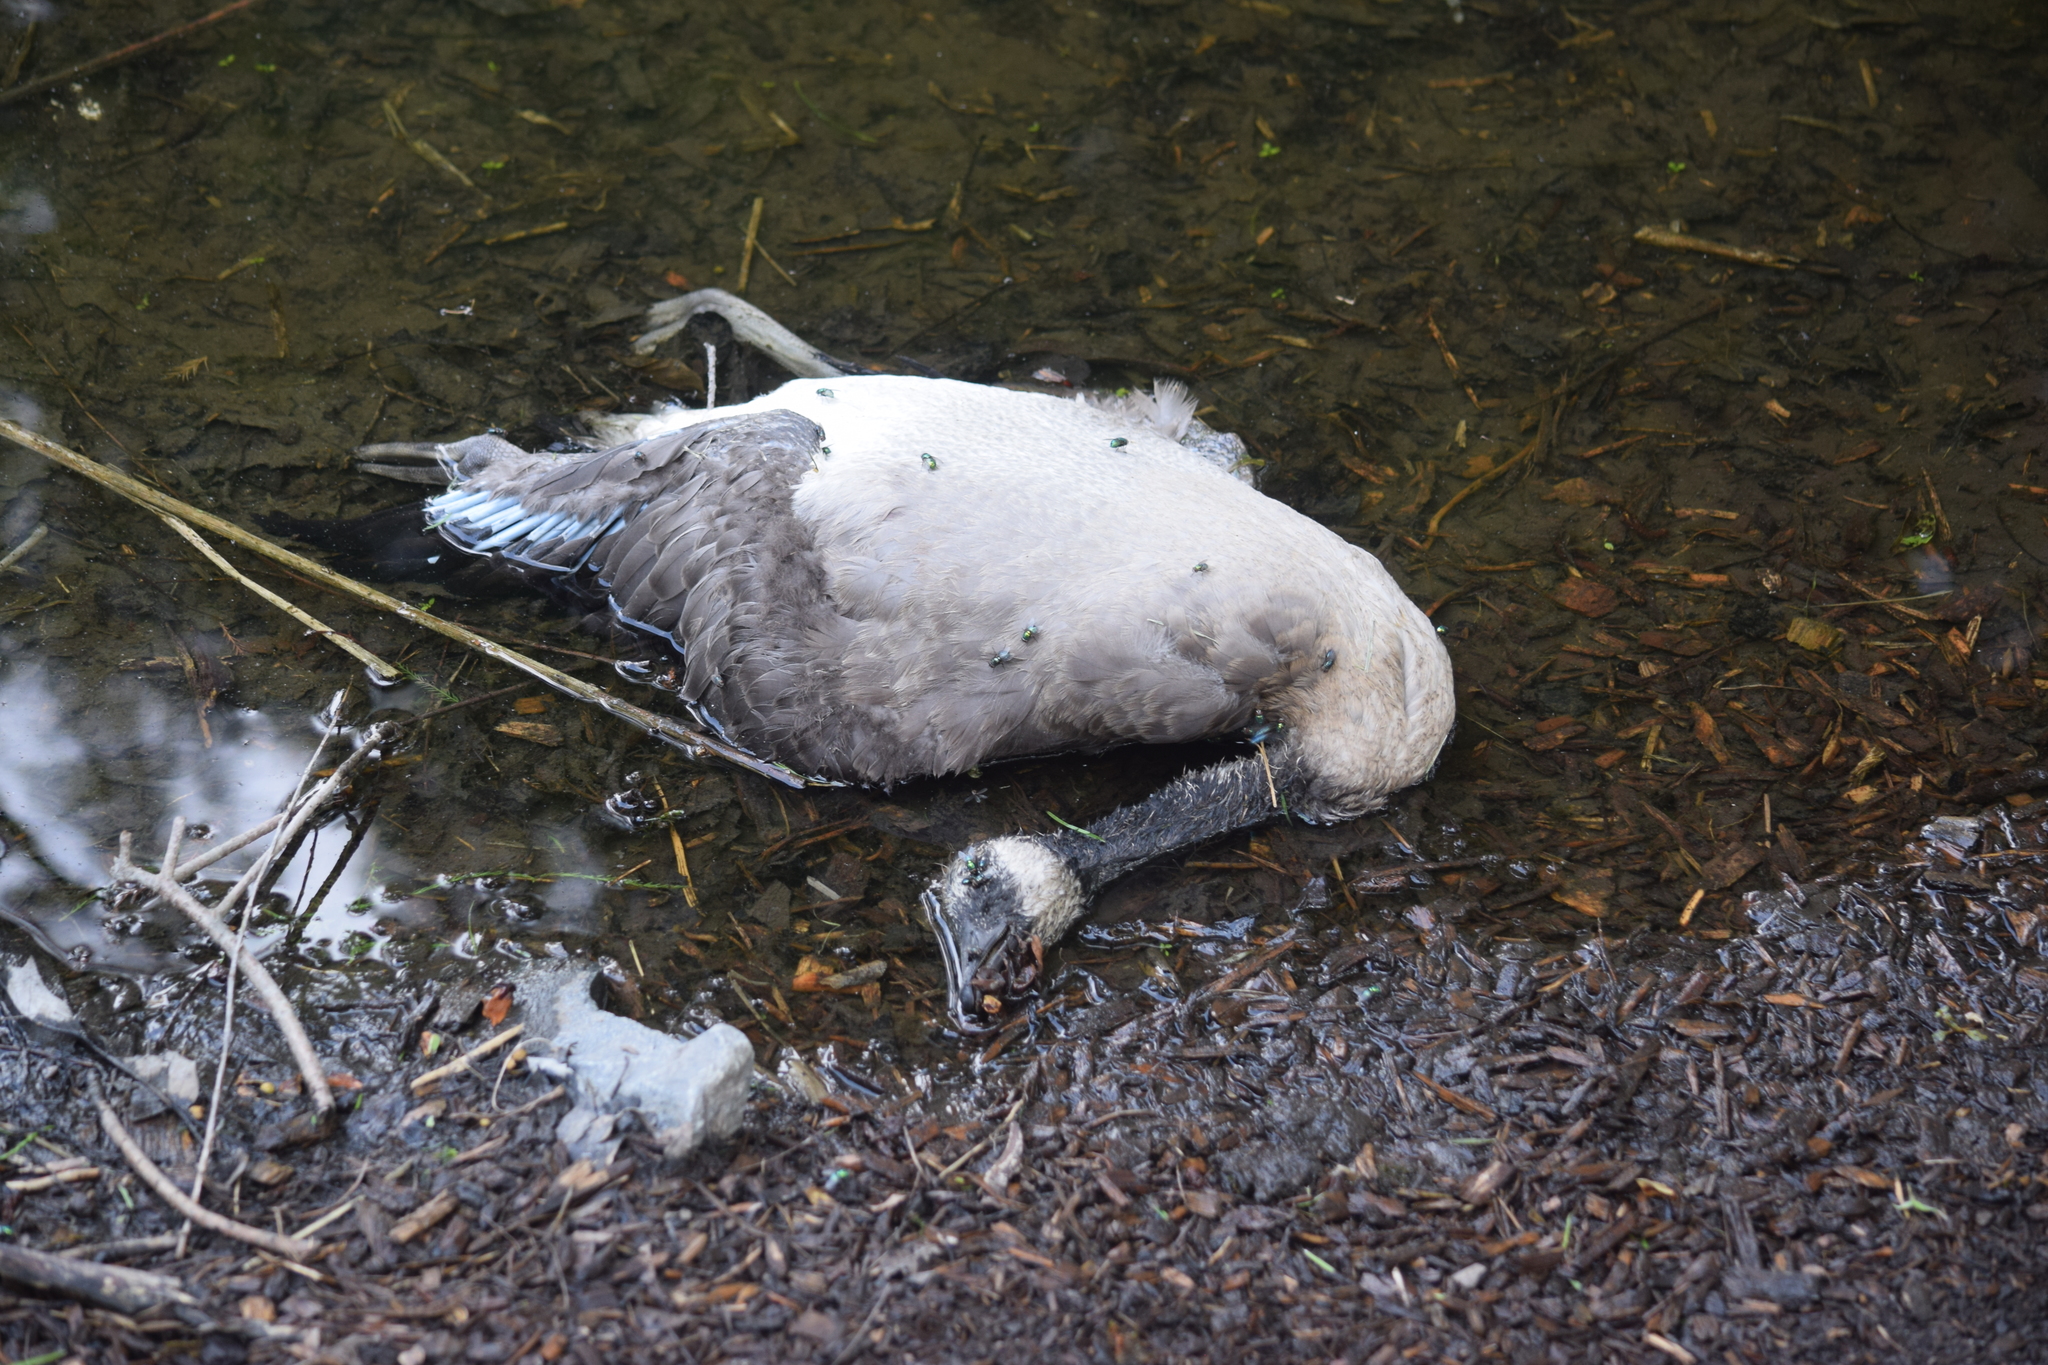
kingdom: Animalia
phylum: Chordata
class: Aves
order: Anseriformes
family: Anatidae
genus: Branta
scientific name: Branta canadensis
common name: Canada goose
